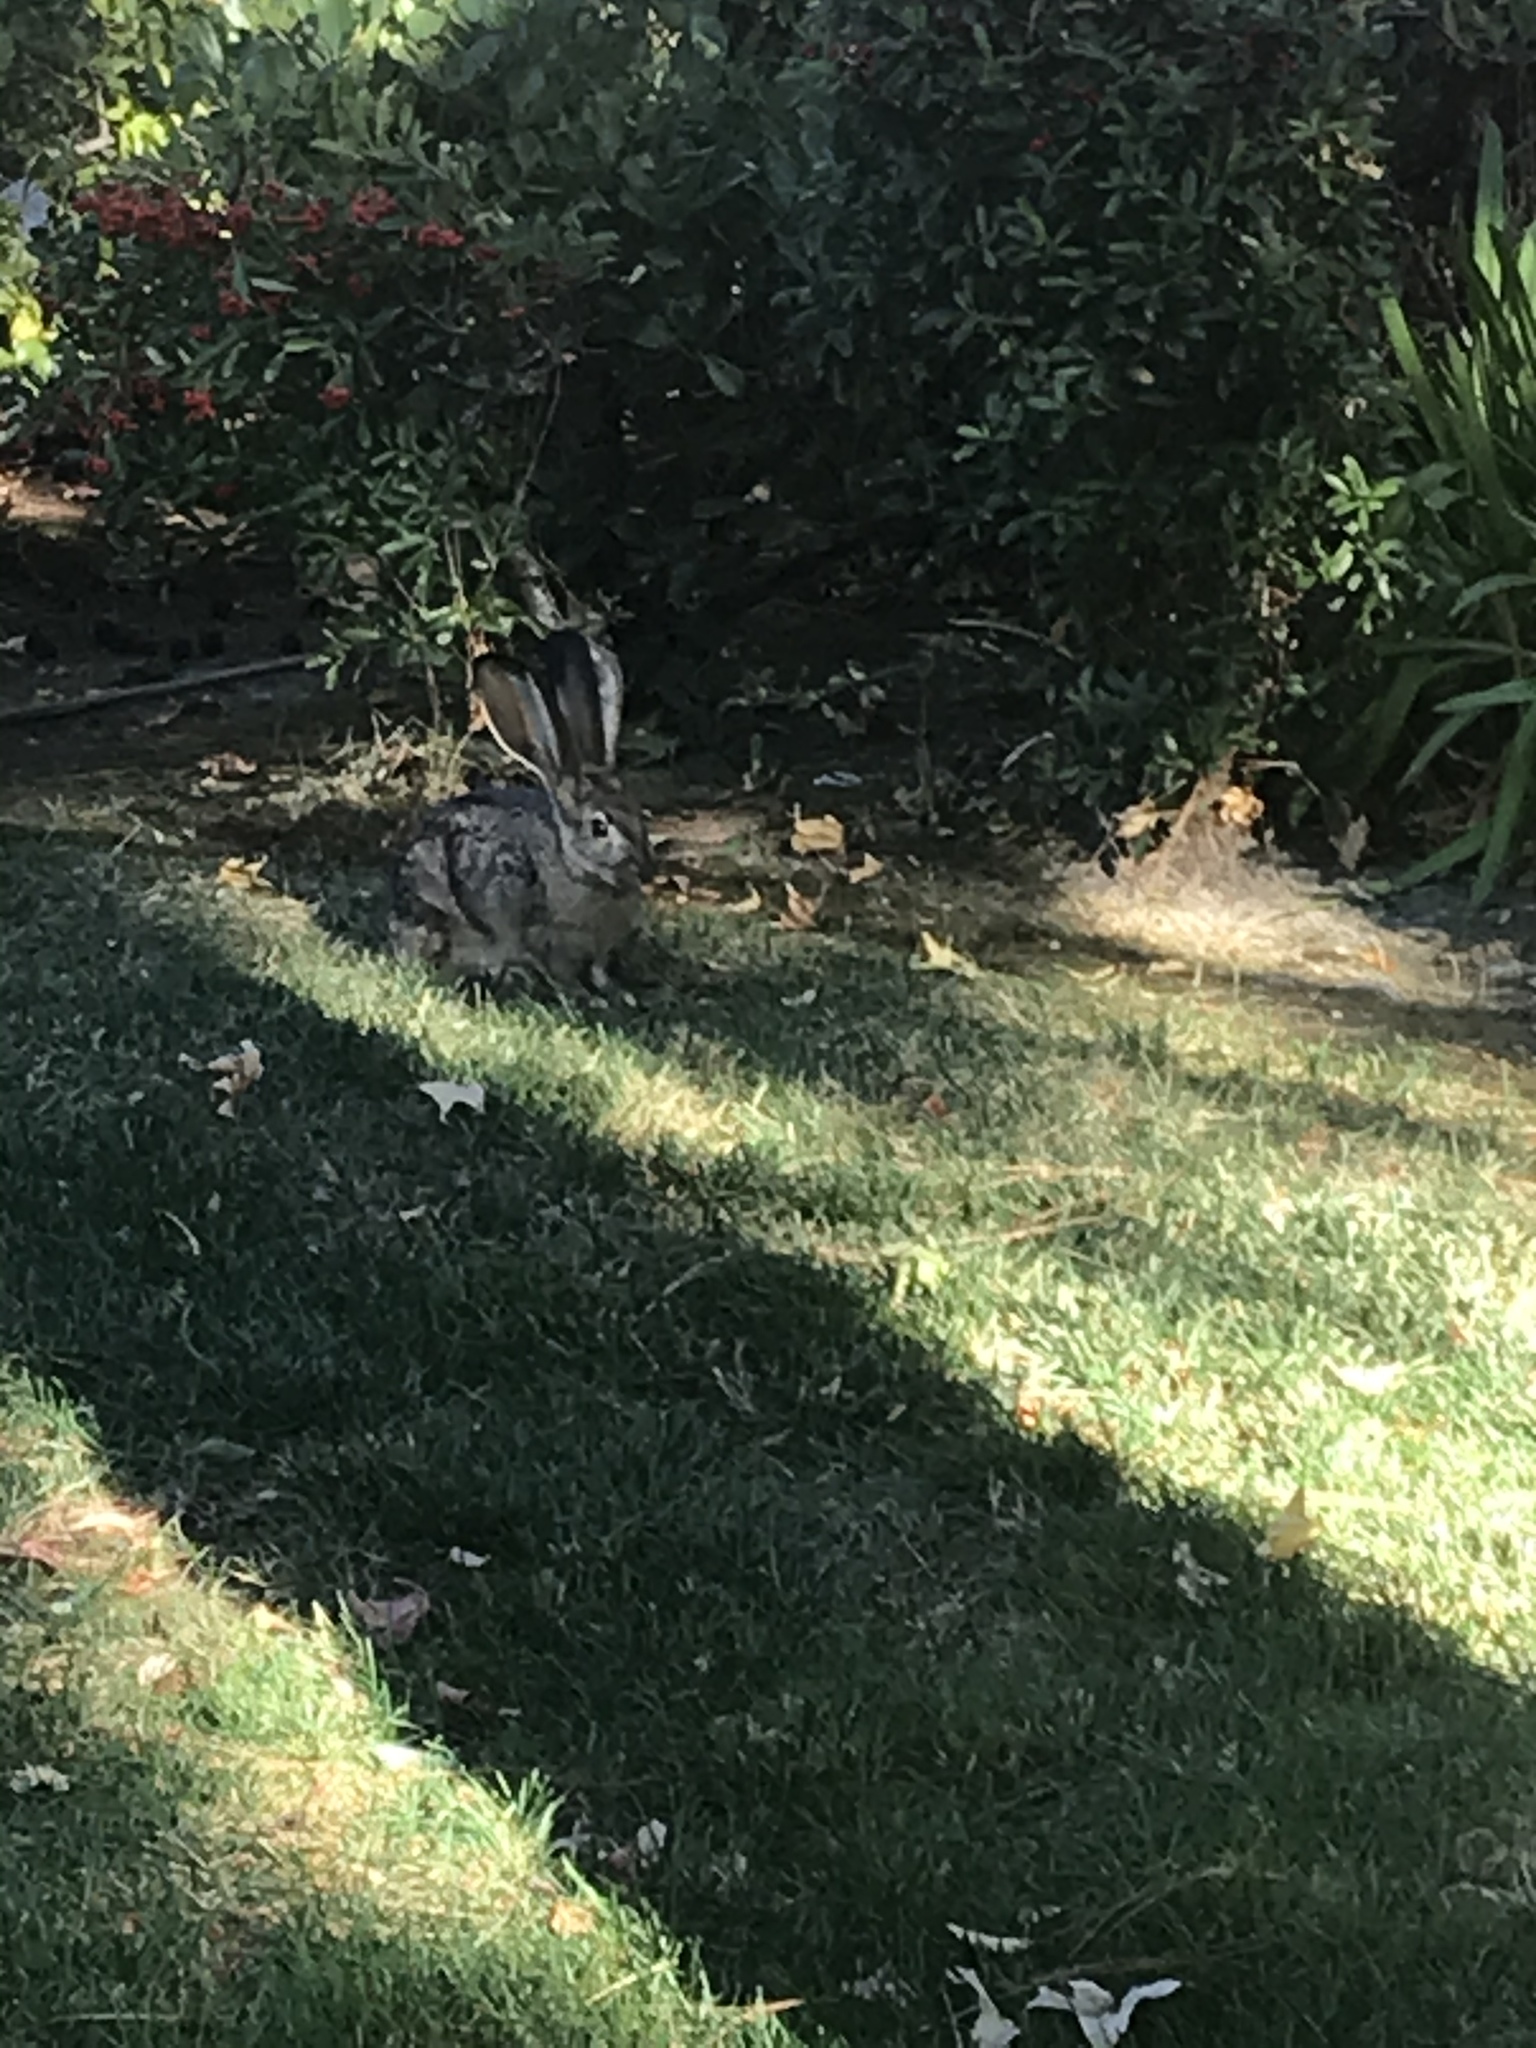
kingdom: Animalia
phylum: Chordata
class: Mammalia
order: Lagomorpha
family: Leporidae
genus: Lepus
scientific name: Lepus californicus
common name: Black-tailed jackrabbit
